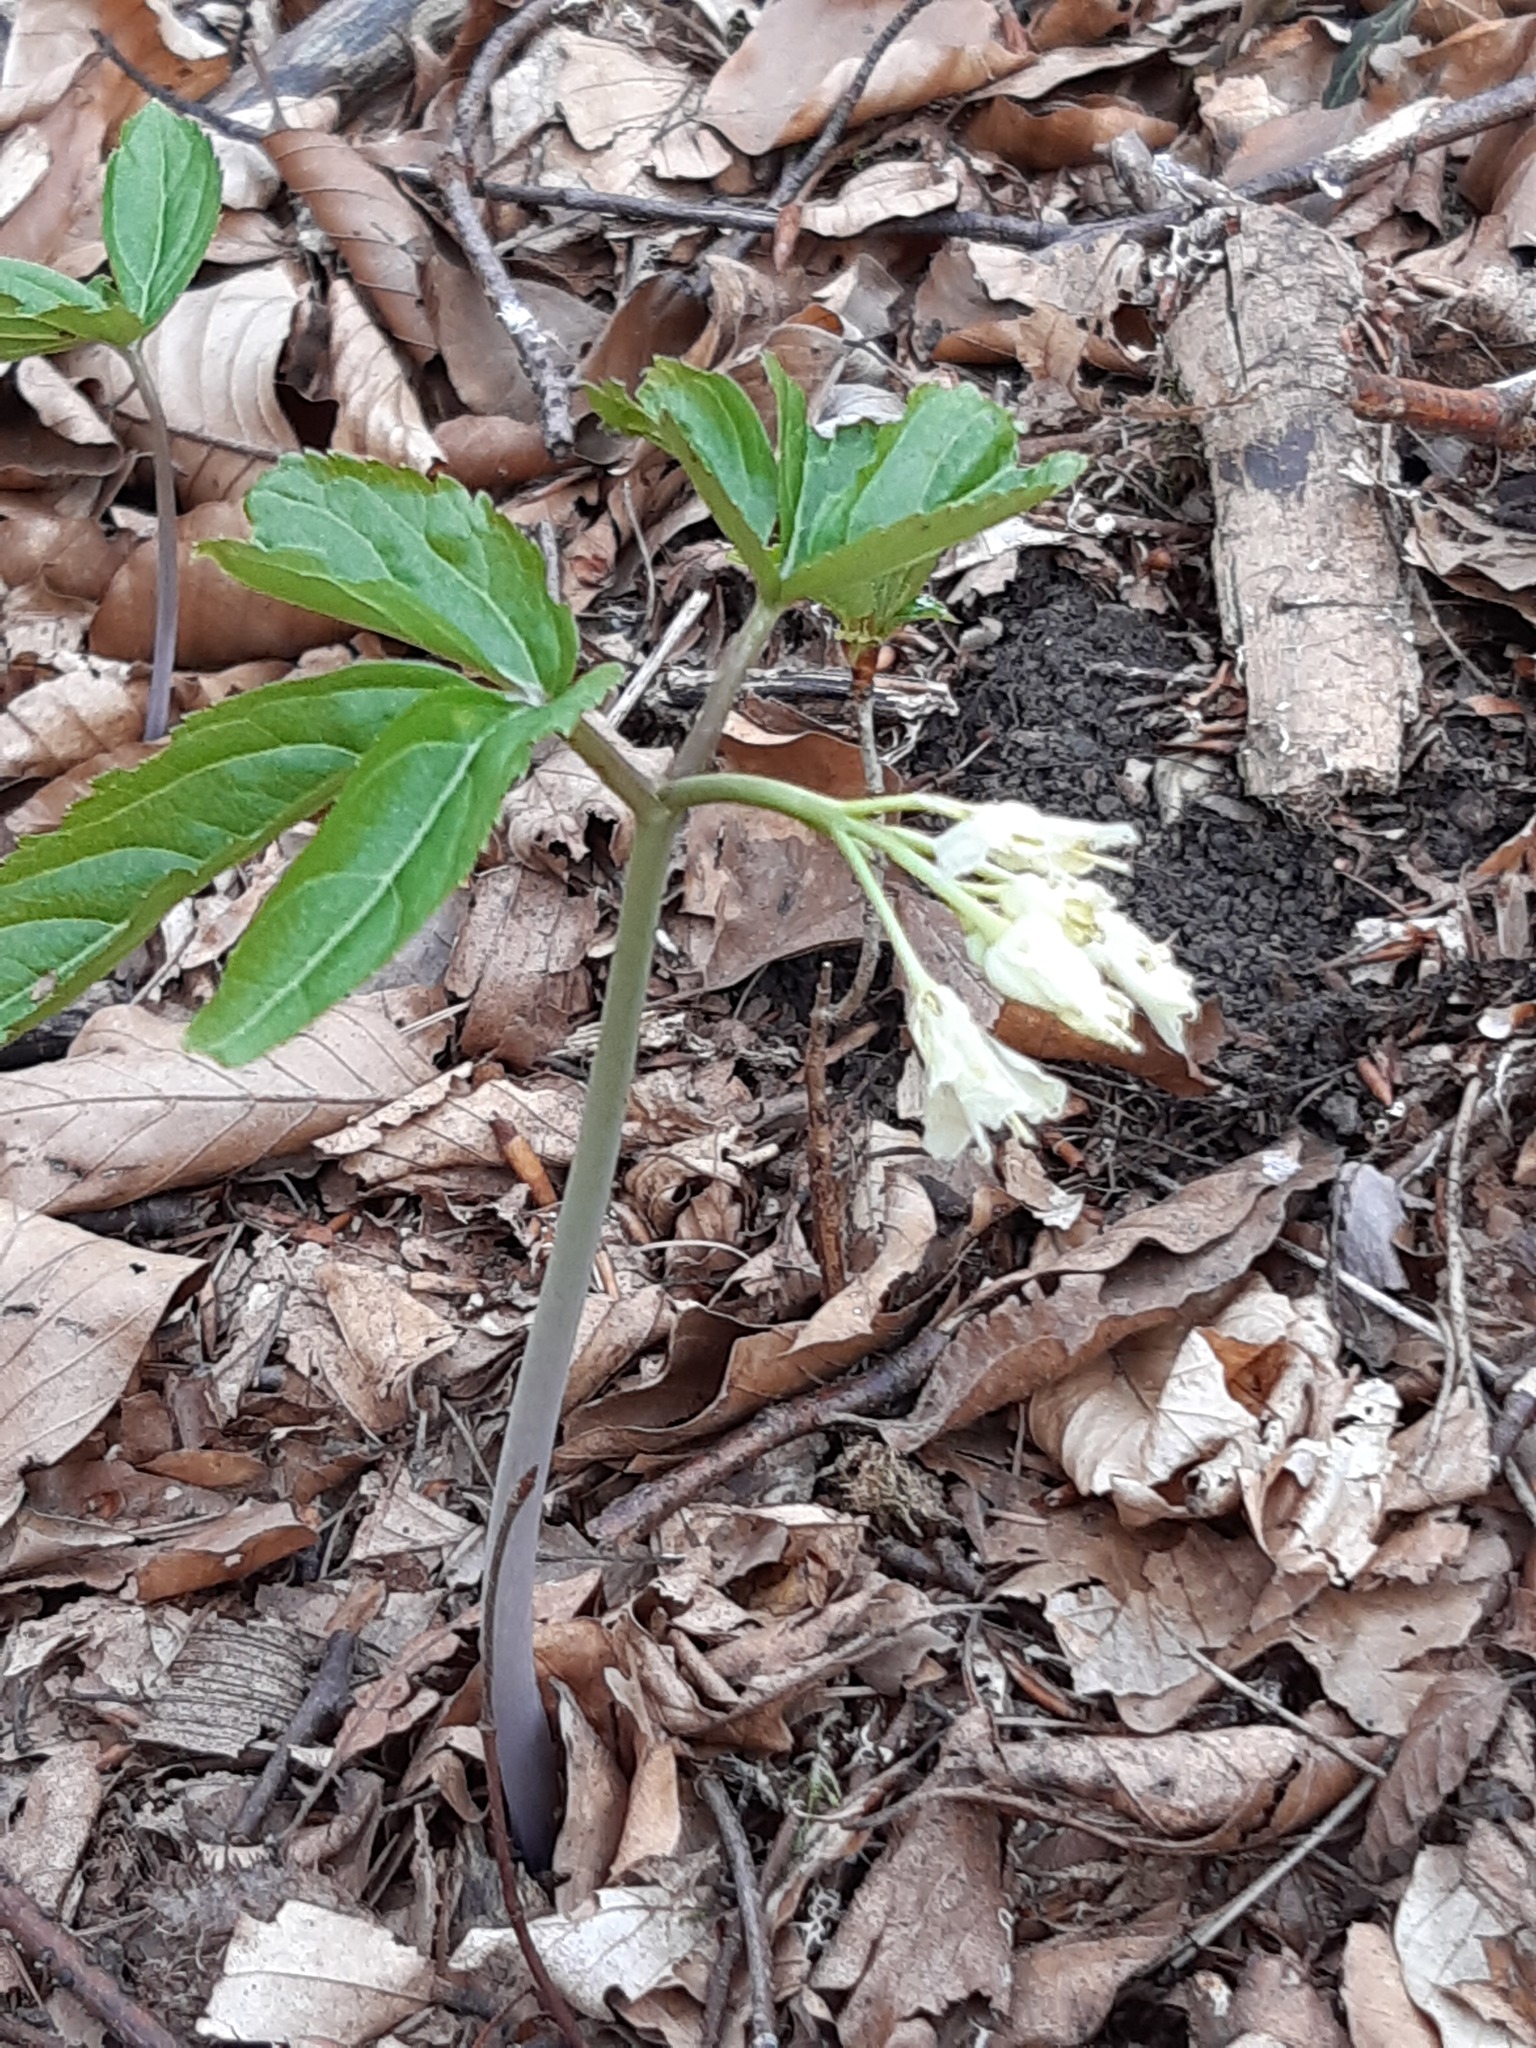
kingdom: Plantae
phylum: Tracheophyta
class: Magnoliopsida
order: Brassicales
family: Brassicaceae
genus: Cardamine
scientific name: Cardamine enneaphyllos
